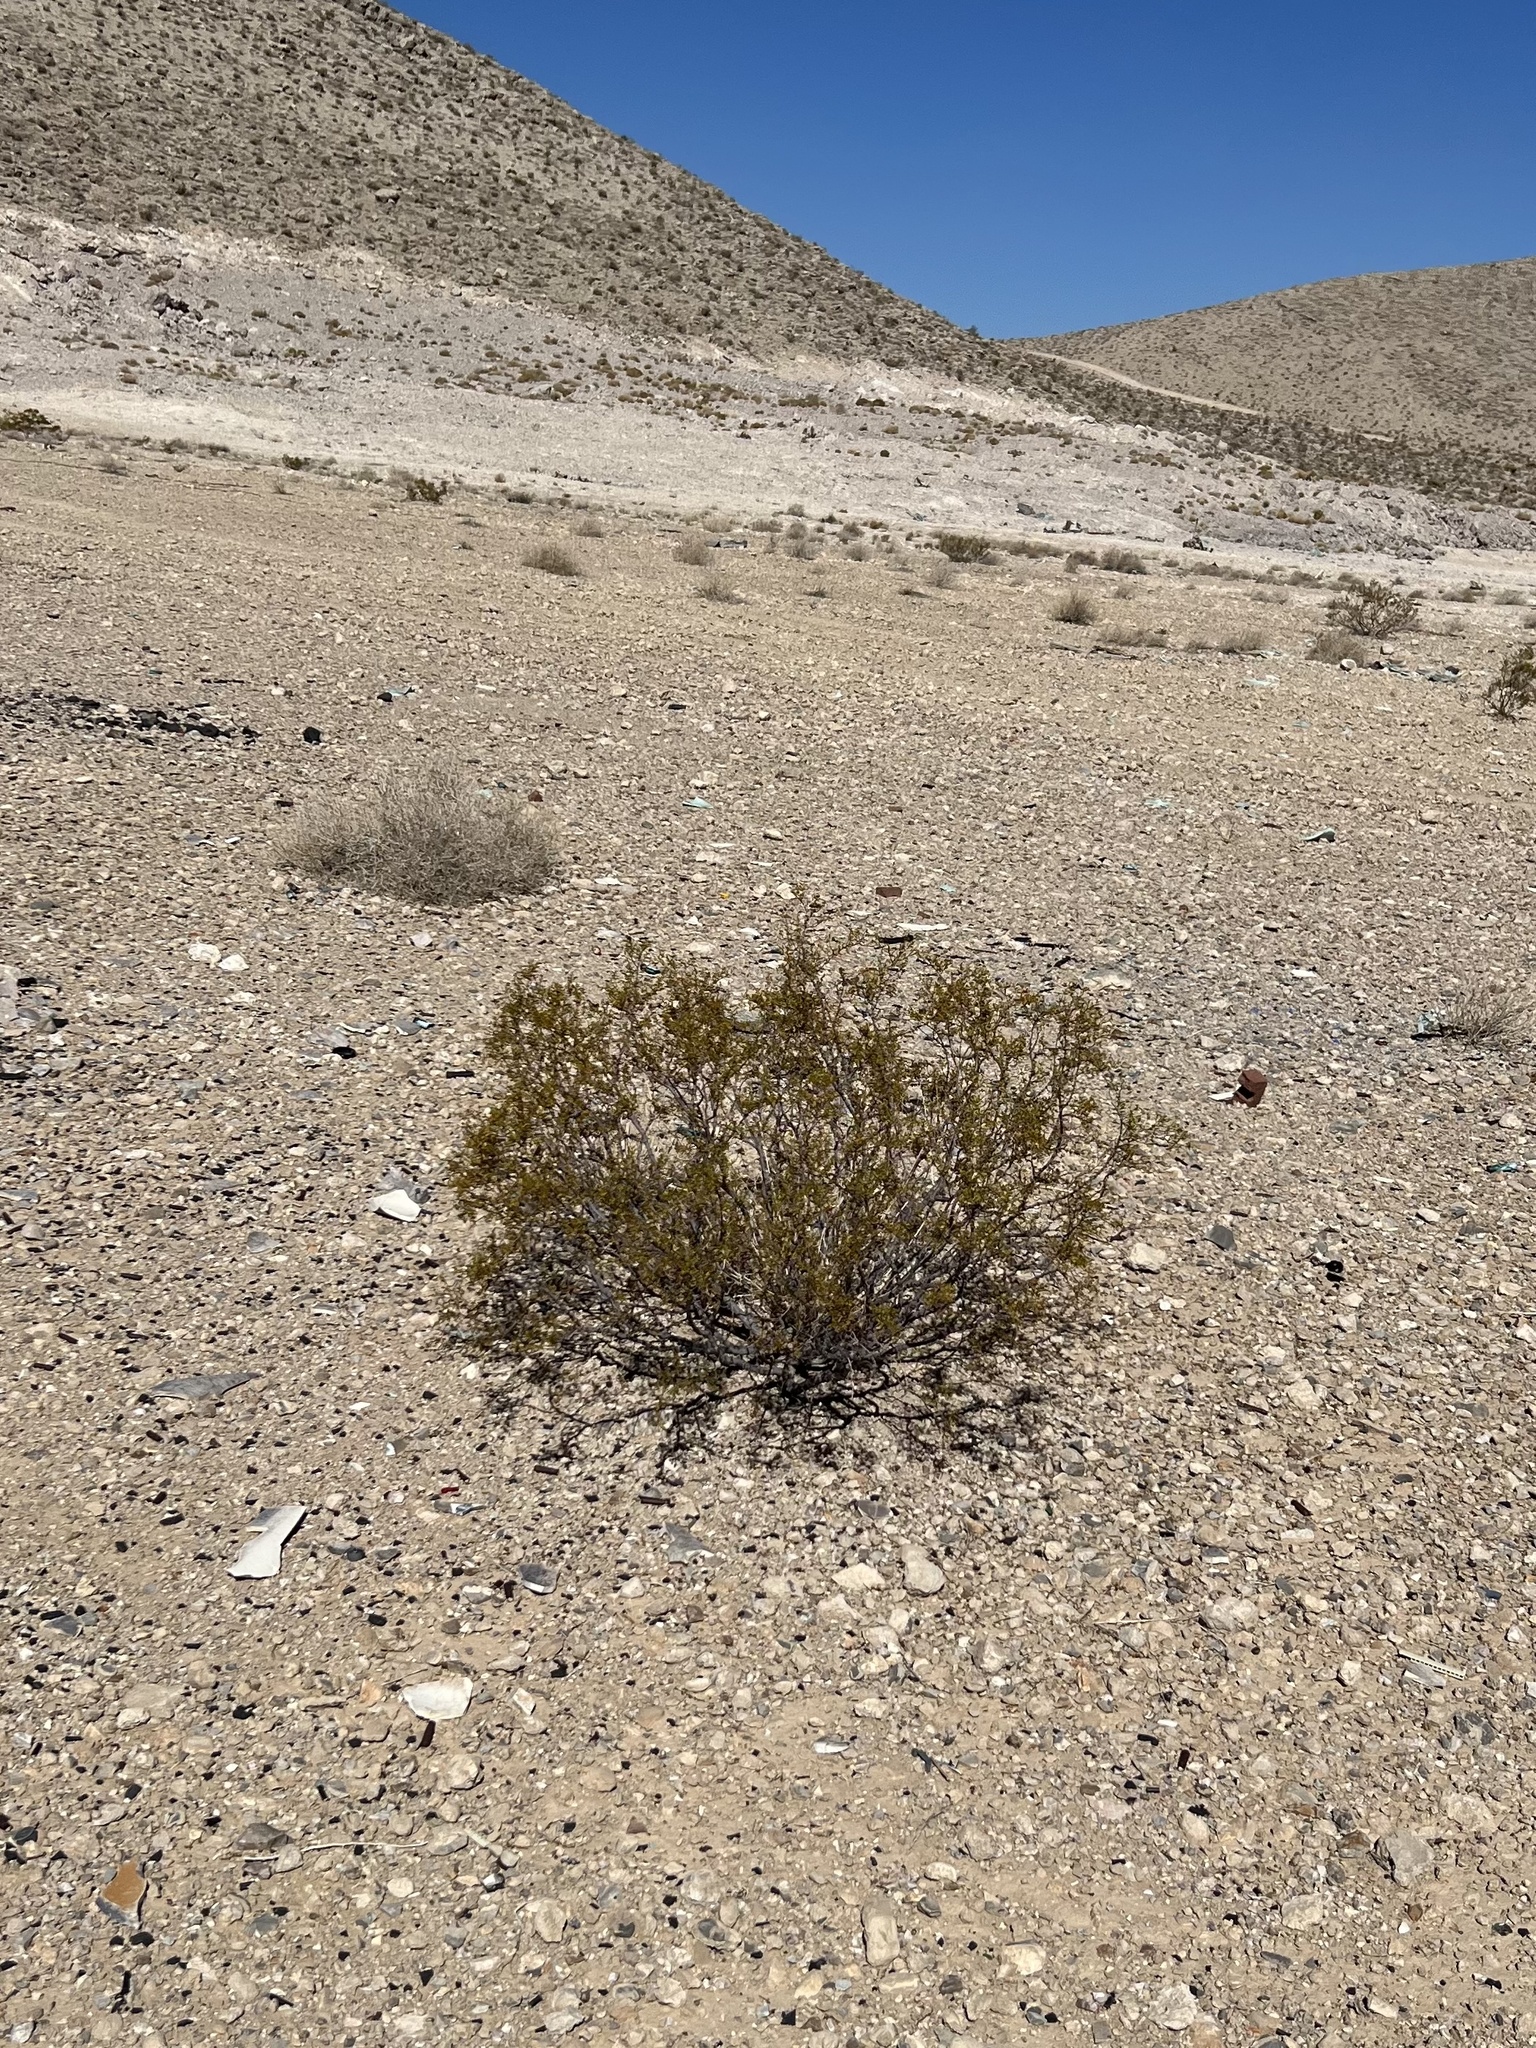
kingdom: Plantae
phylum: Tracheophyta
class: Magnoliopsida
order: Zygophyllales
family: Zygophyllaceae
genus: Larrea
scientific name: Larrea tridentata
